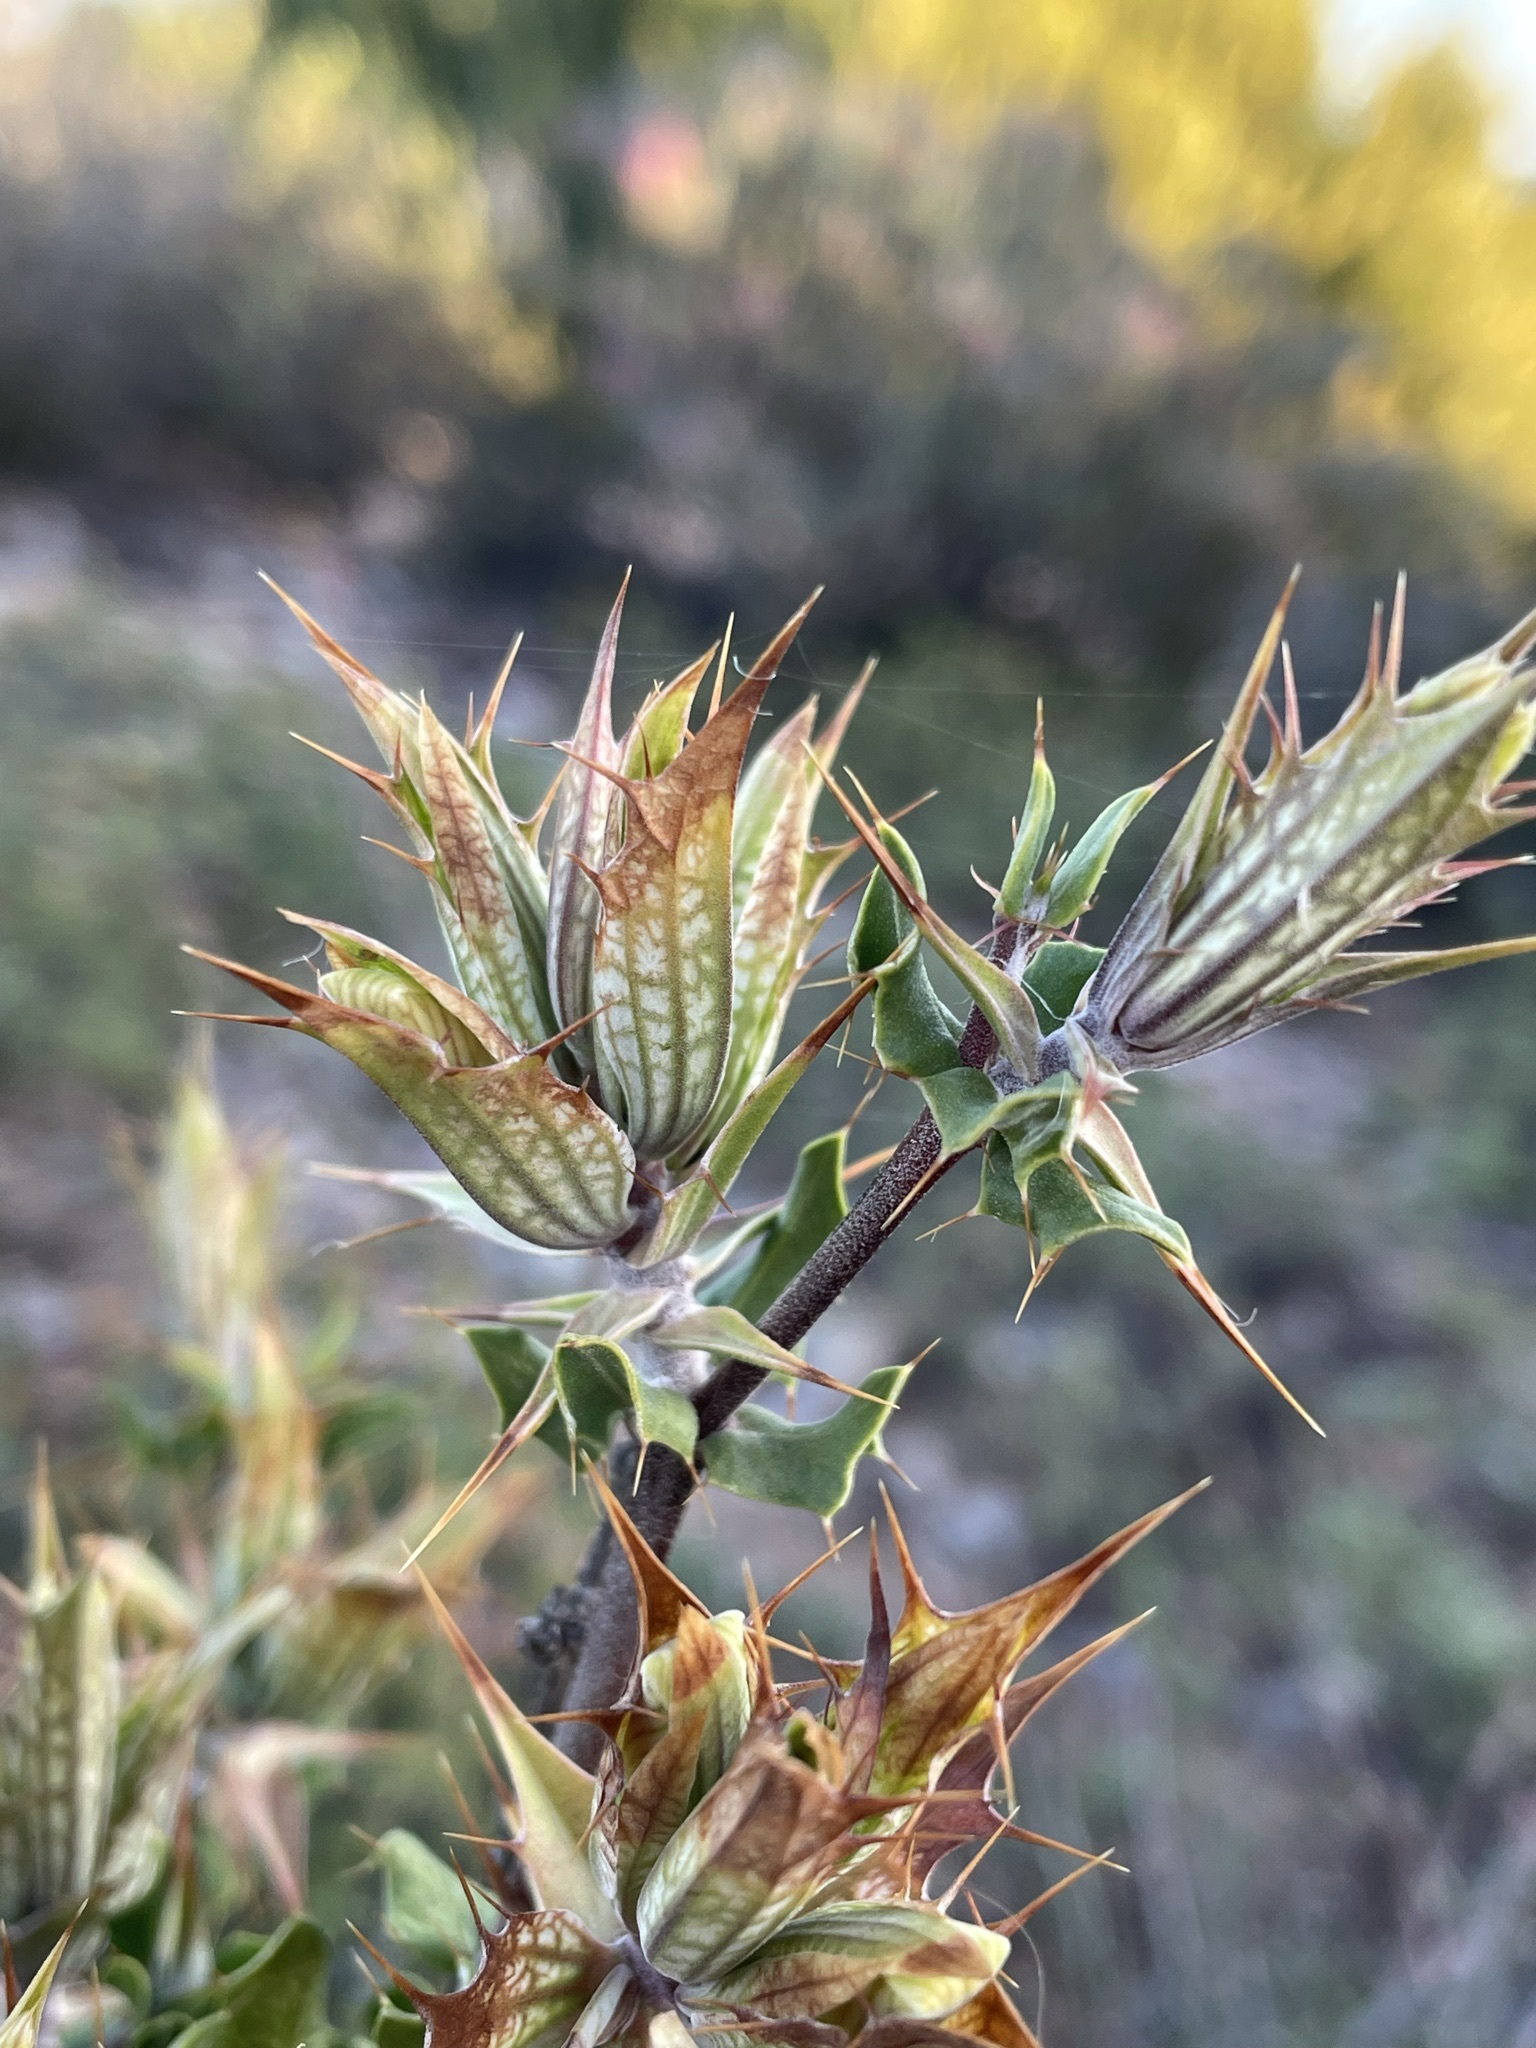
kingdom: Plantae
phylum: Tracheophyta
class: Magnoliopsida
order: Lamiales
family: Acanthaceae
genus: Blepharis
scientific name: Blepharis capensis
